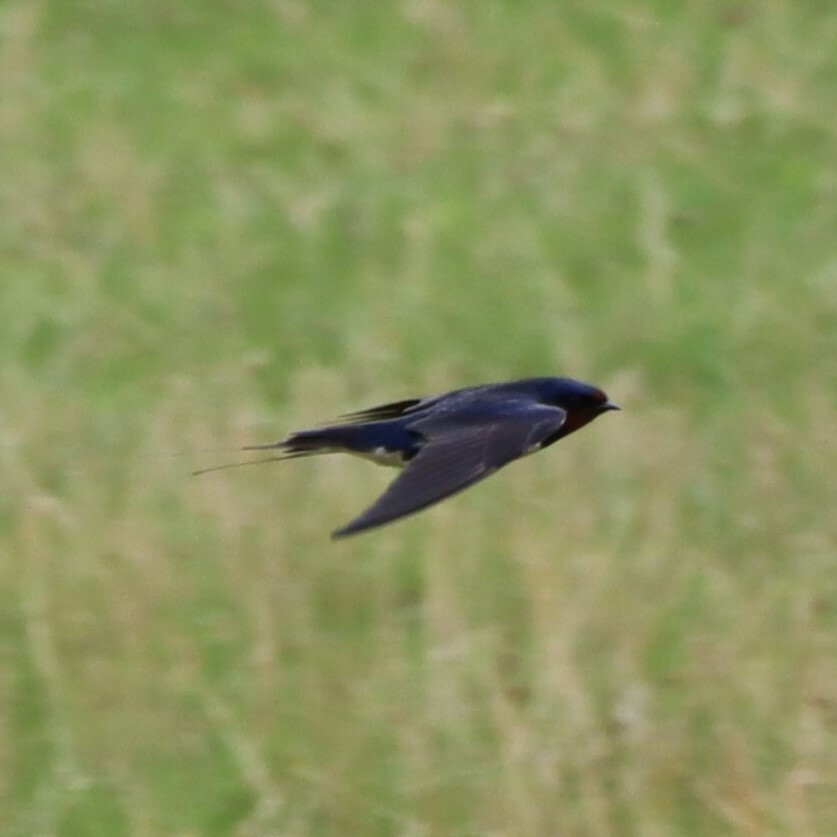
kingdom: Animalia
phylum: Chordata
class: Aves
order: Passeriformes
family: Hirundinidae
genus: Hirundo
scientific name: Hirundo rustica
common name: Barn swallow
